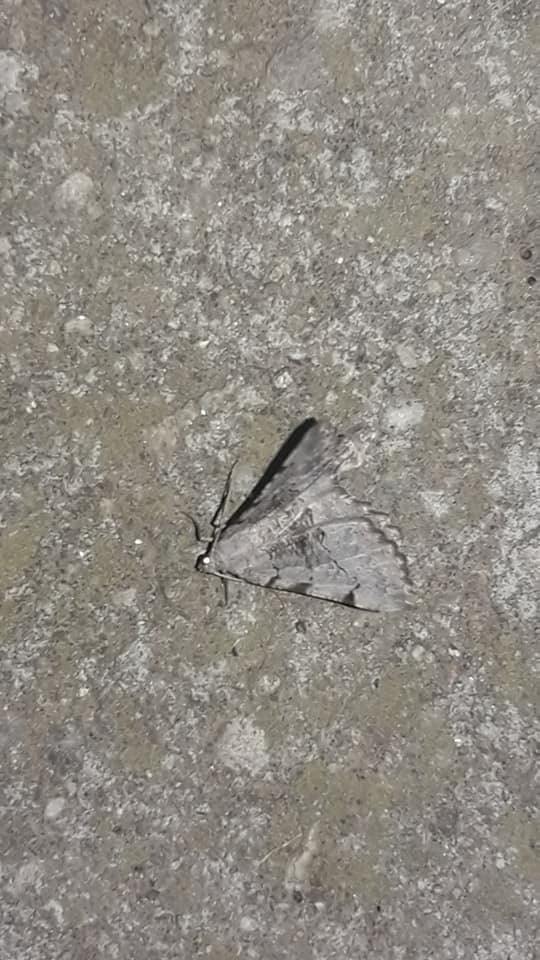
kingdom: Animalia
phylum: Arthropoda
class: Insecta
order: Lepidoptera
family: Geometridae
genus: Neognopharmia
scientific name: Neognopharmia stevenaria
